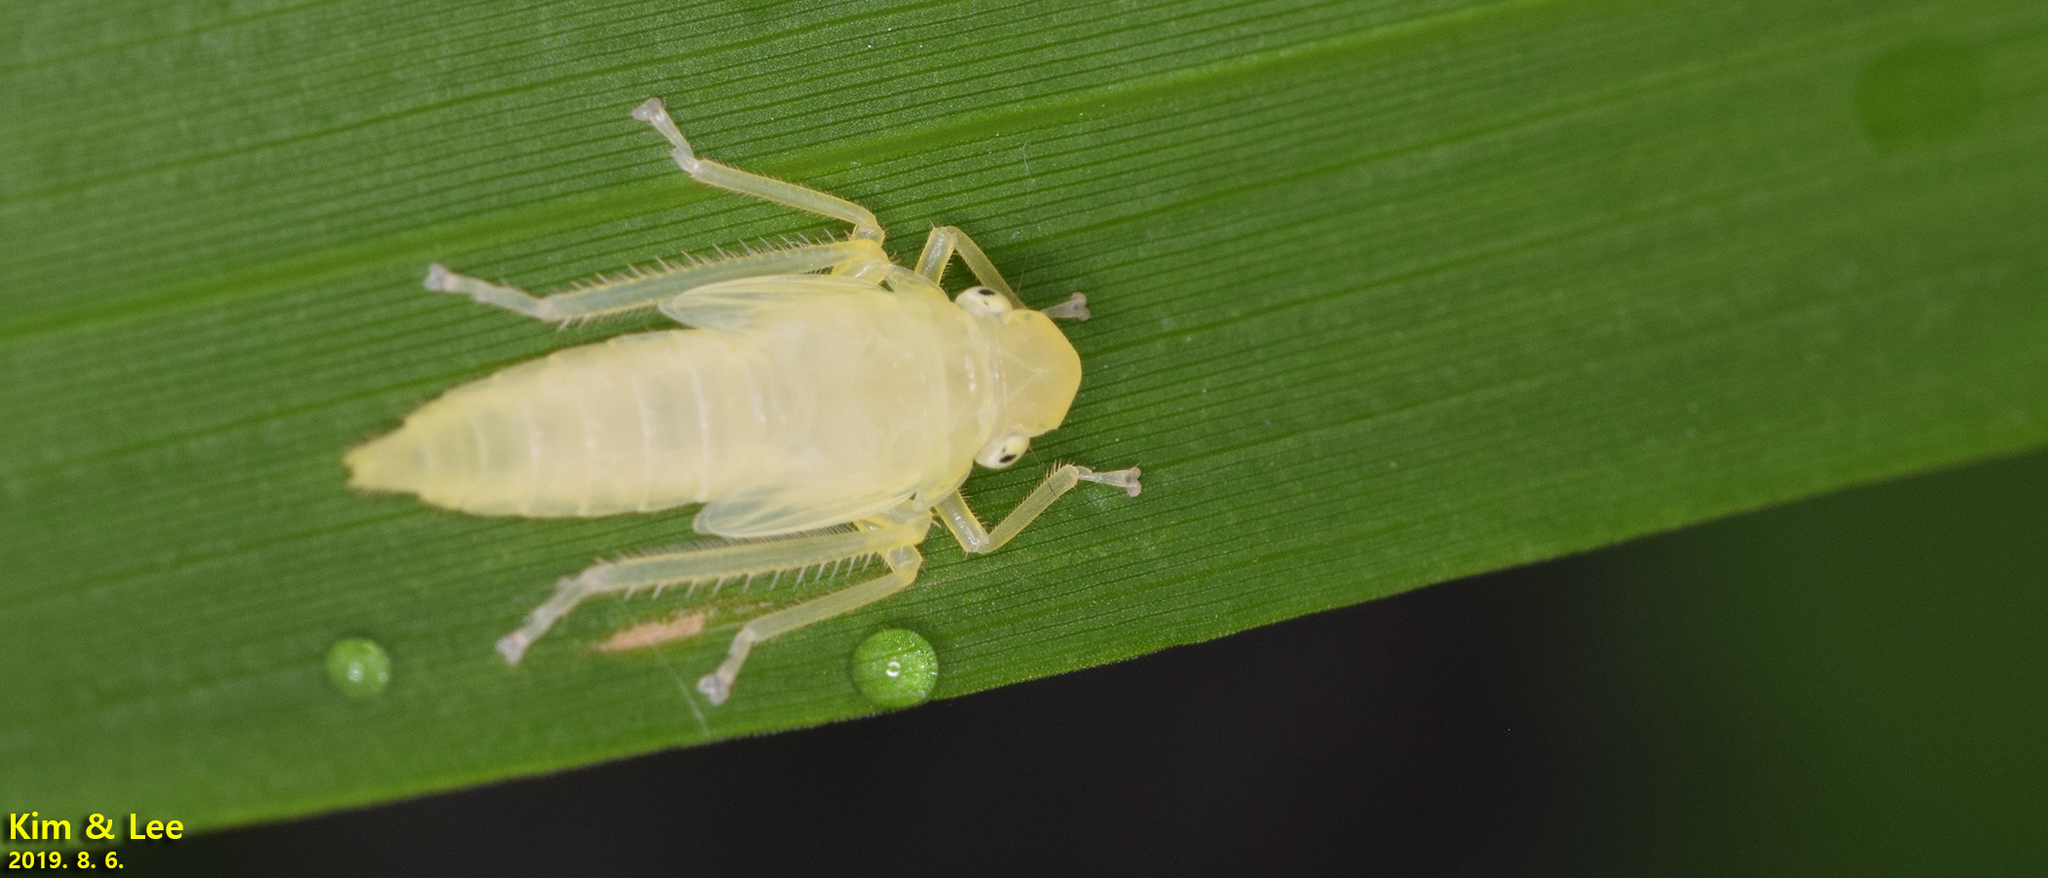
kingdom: Animalia
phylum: Arthropoda
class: Insecta
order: Hemiptera
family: Cicadellidae
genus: Bothrogonia
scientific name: Bothrogonia ferruginea
